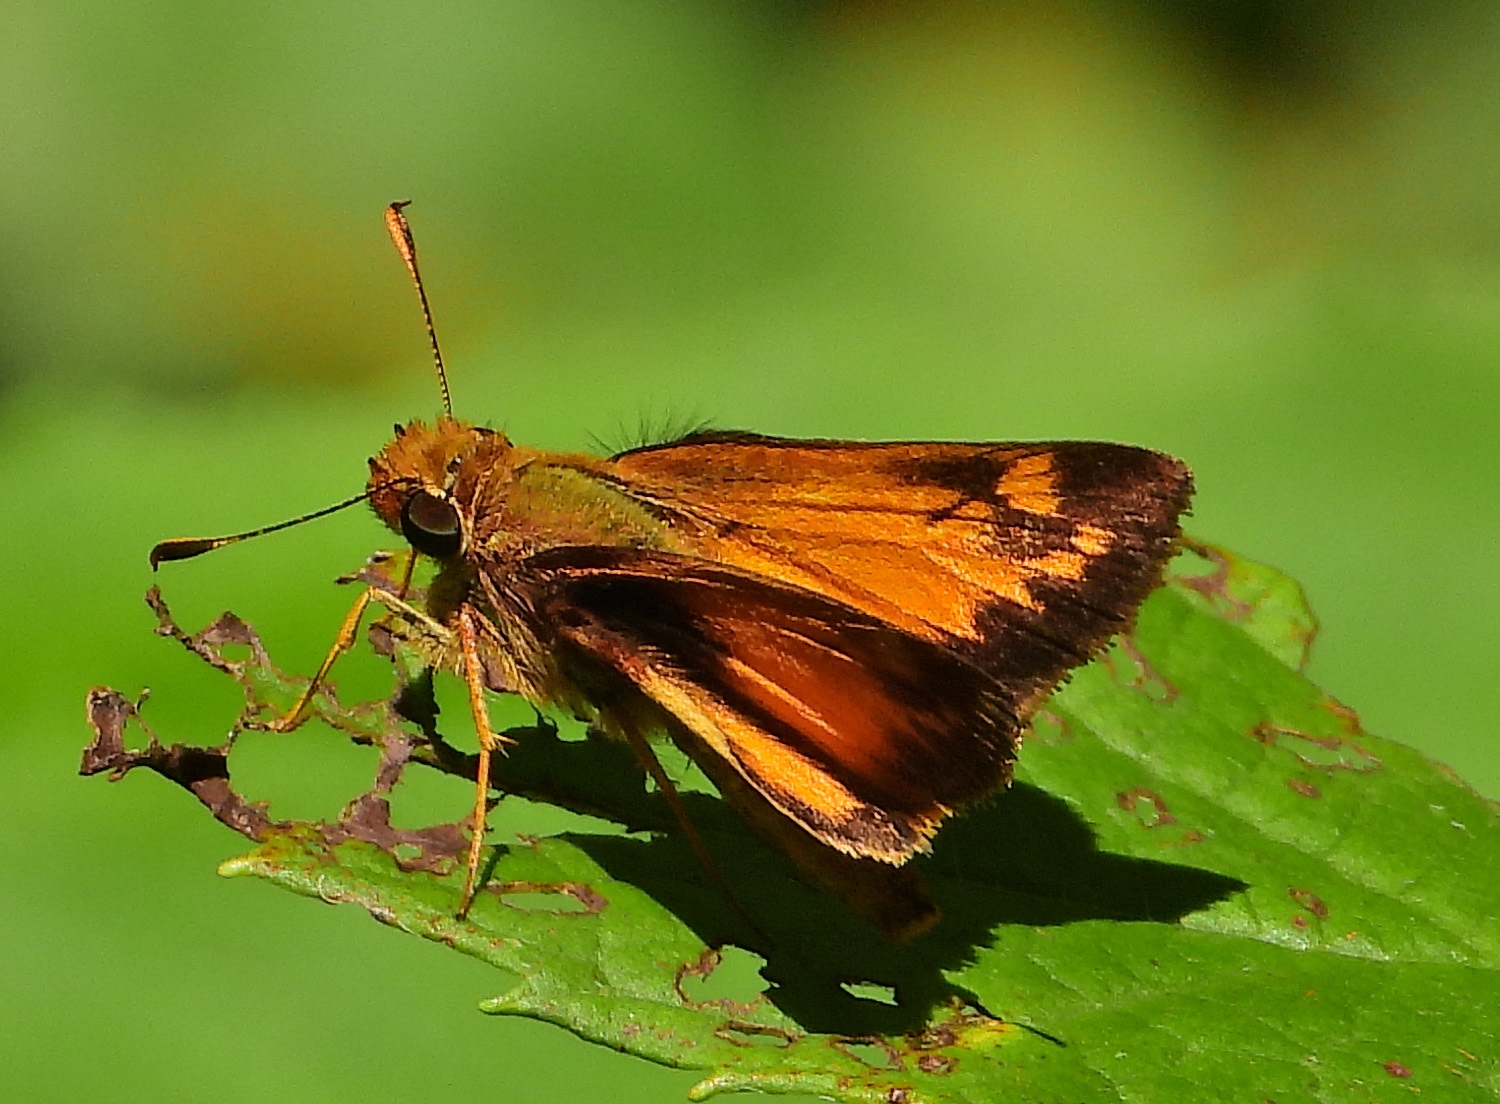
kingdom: Animalia
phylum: Arthropoda
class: Insecta
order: Lepidoptera
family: Hesperiidae
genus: Lon
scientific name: Lon zabulon
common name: Zabulon skipper
